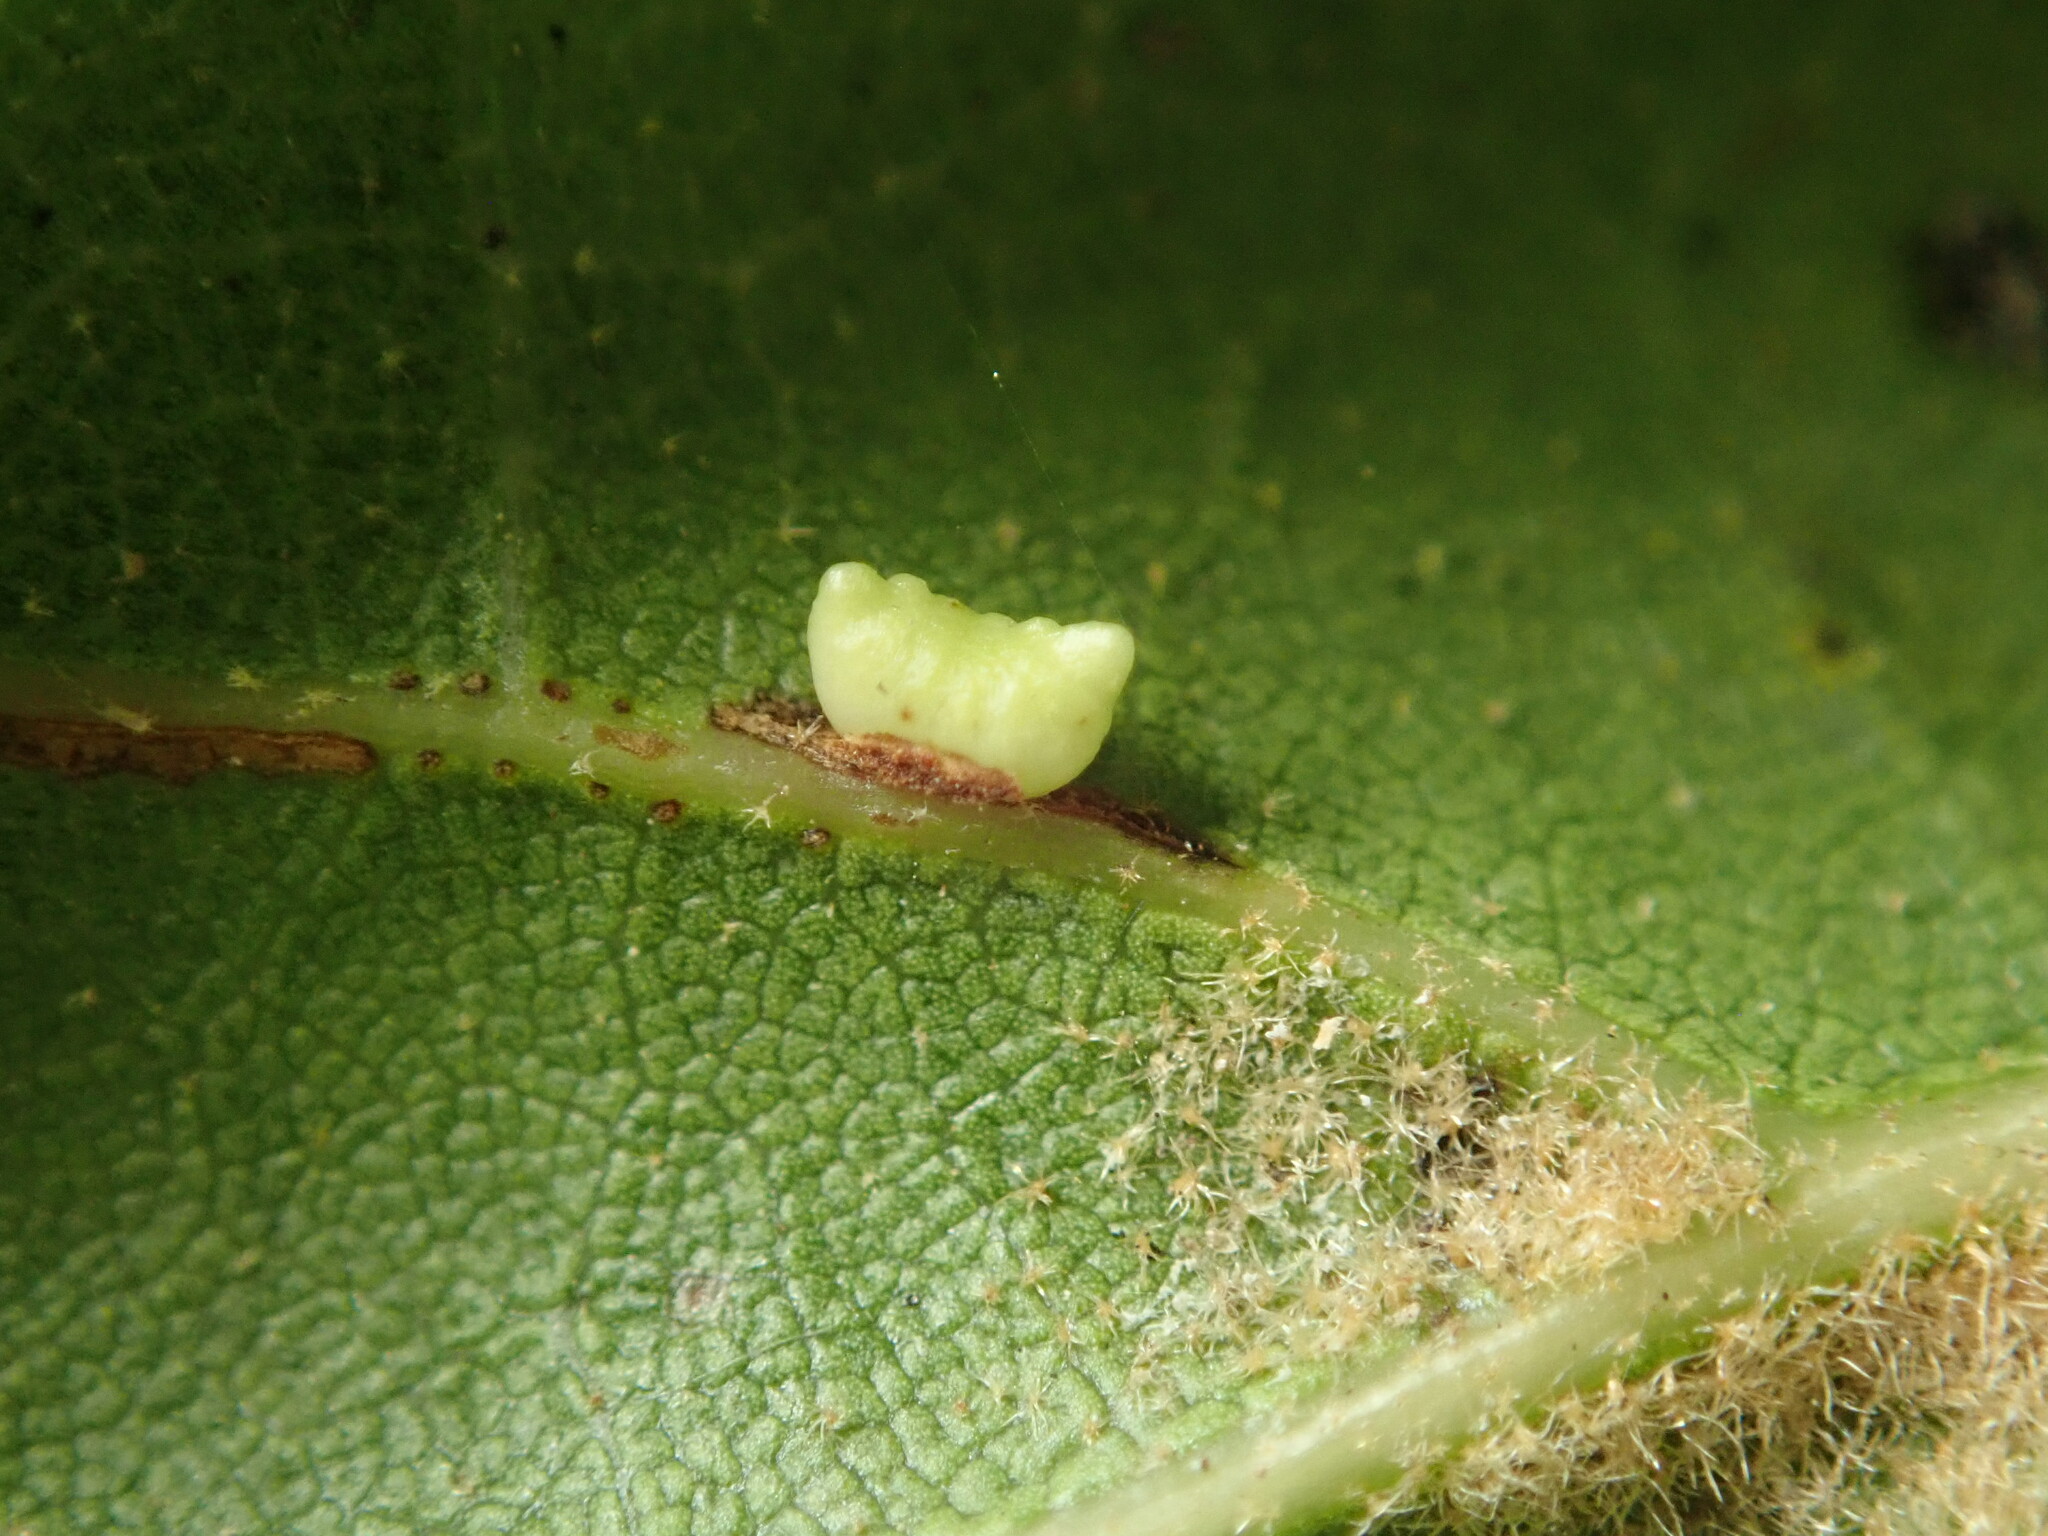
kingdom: Animalia
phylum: Arthropoda
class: Insecta
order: Hymenoptera
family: Cynipidae
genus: Dryocosmus
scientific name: Dryocosmus
